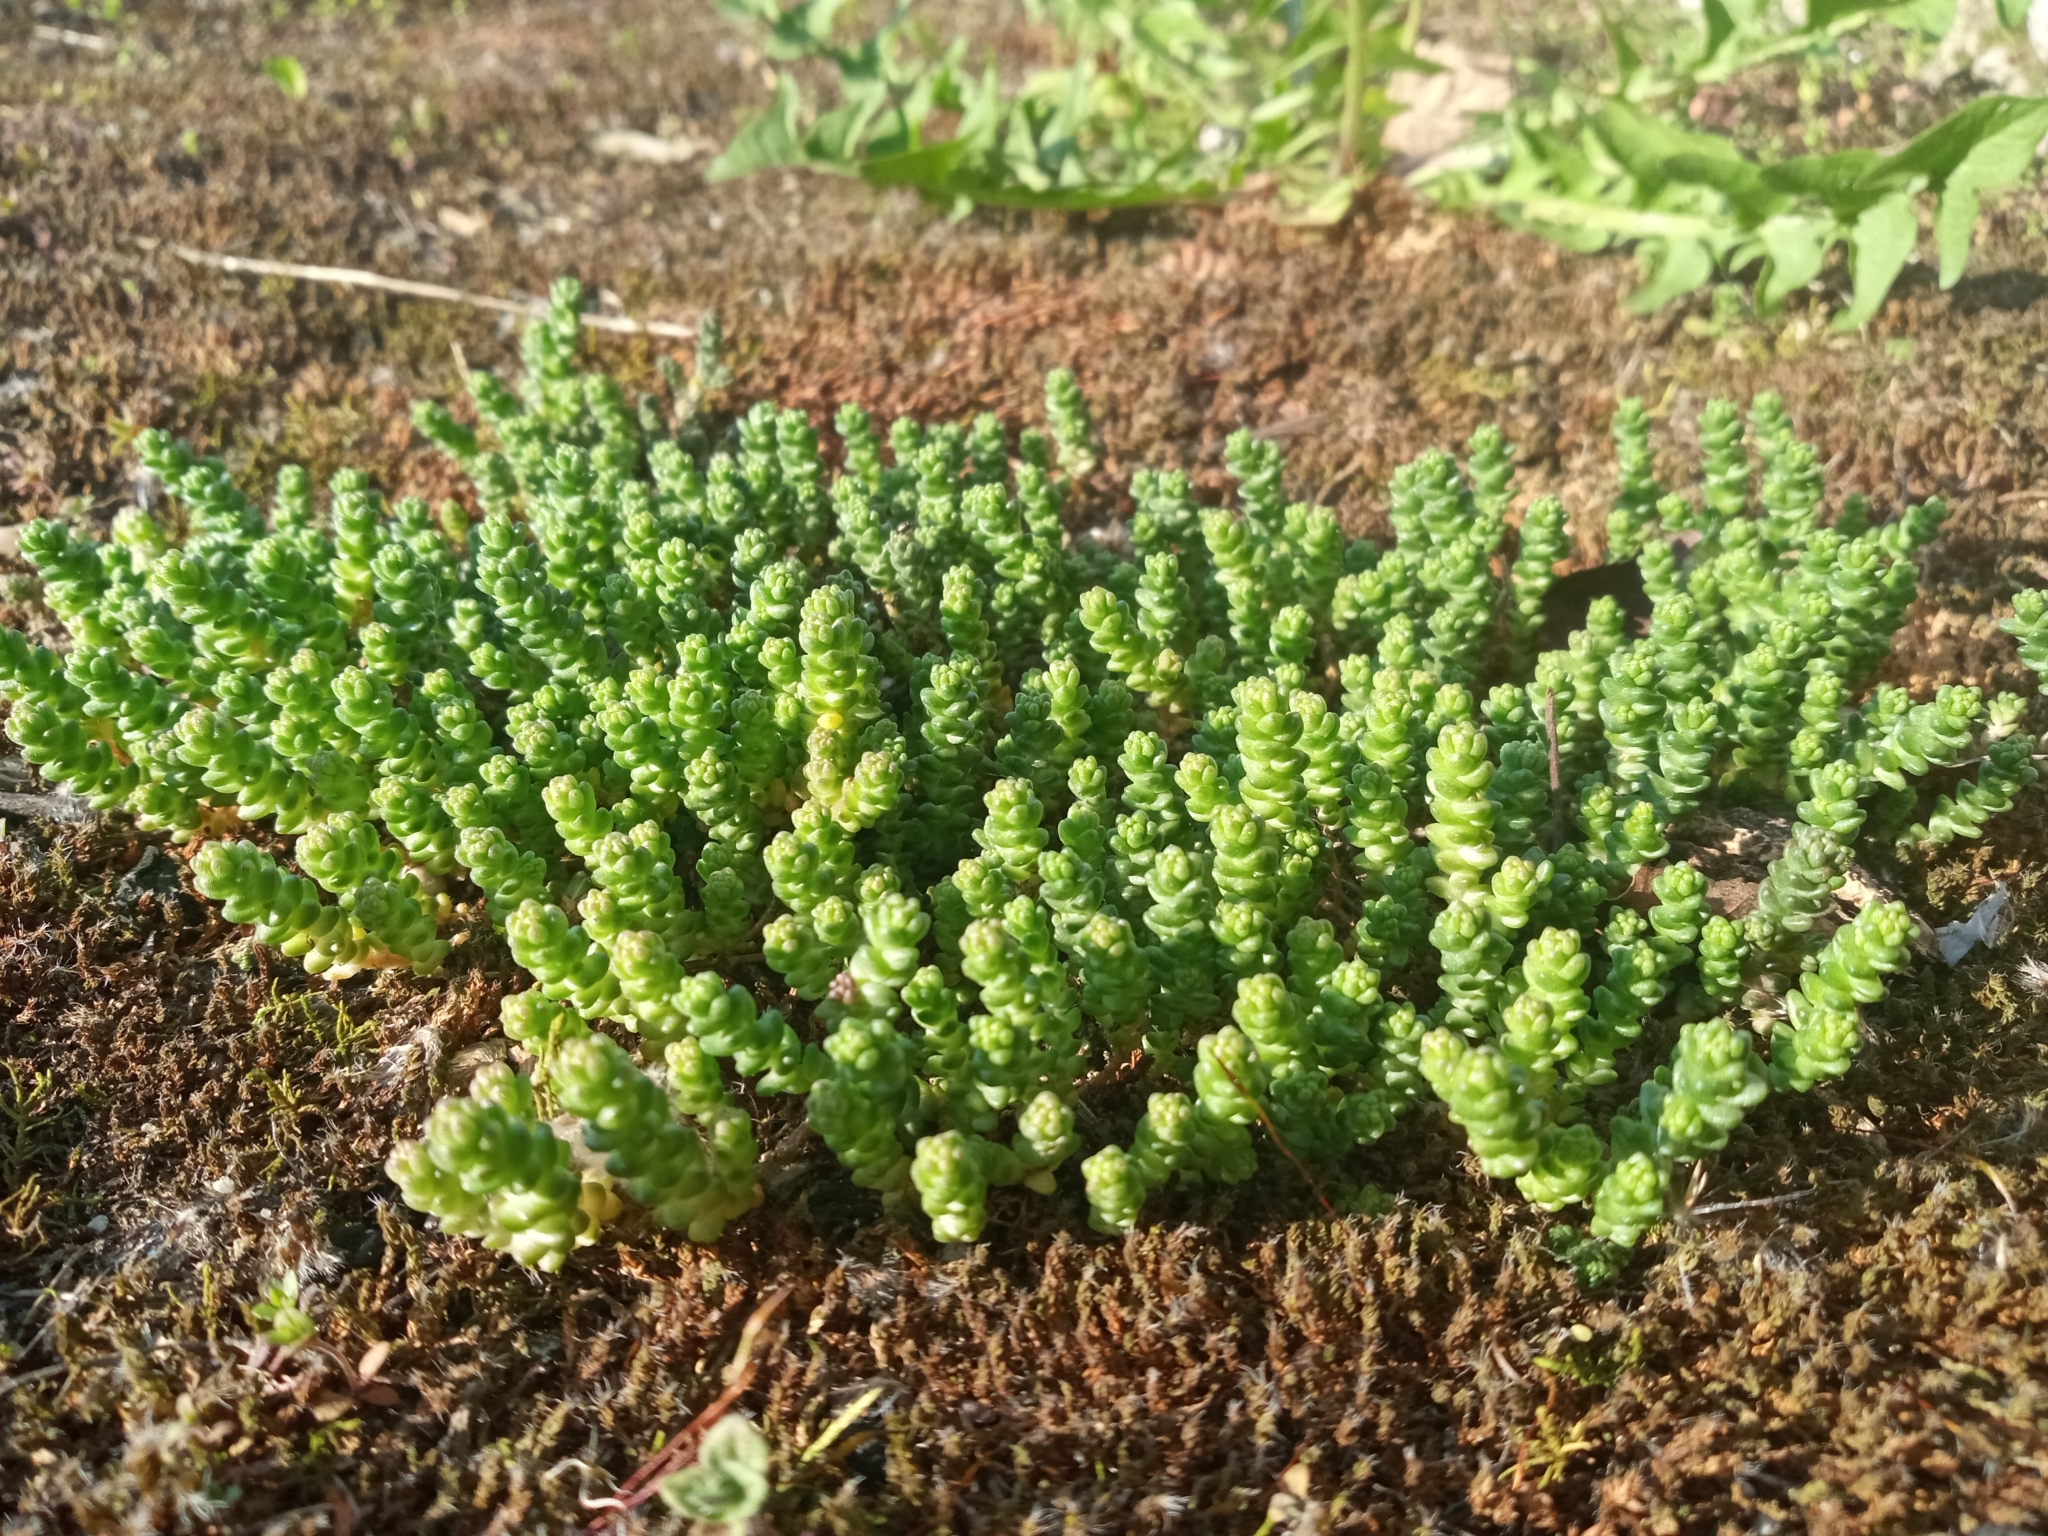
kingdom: Plantae
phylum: Tracheophyta
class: Magnoliopsida
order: Saxifragales
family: Crassulaceae
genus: Sedum
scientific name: Sedum acre
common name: Biting stonecrop
